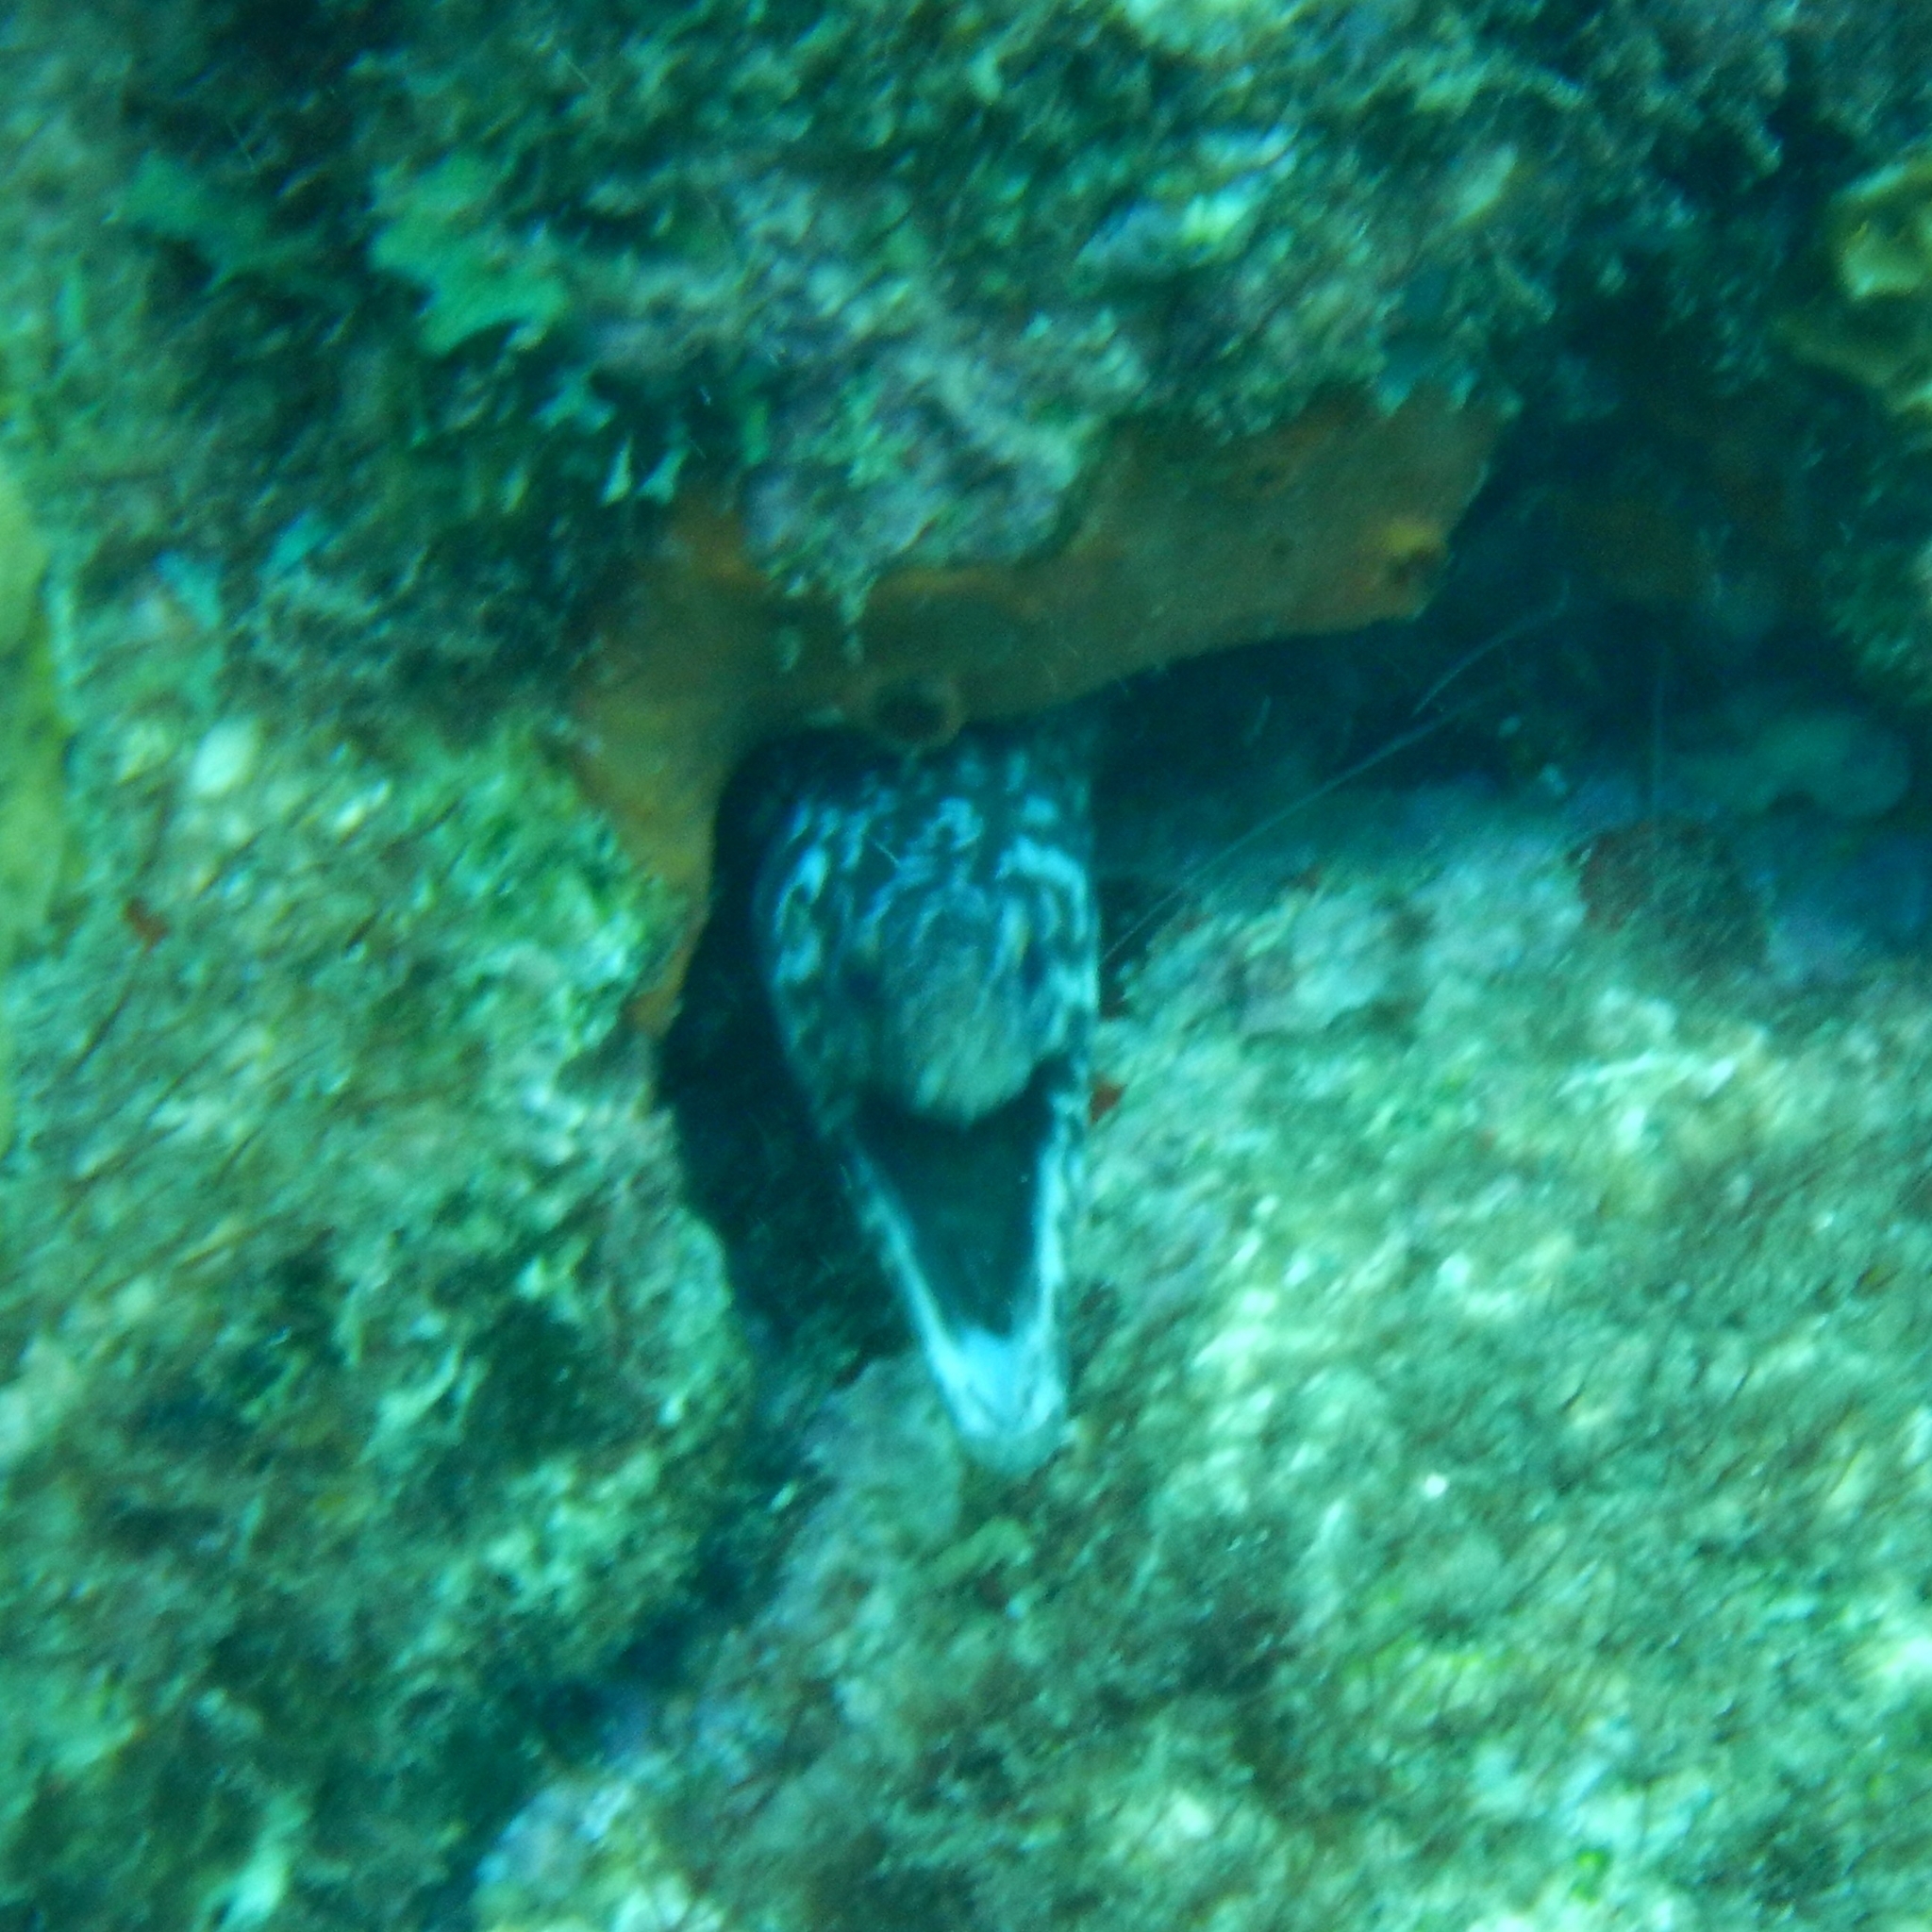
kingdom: Animalia
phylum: Chordata
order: Anguilliformes
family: Muraenidae
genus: Gymnothorax
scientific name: Gymnothorax moringa
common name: Spotted moray
